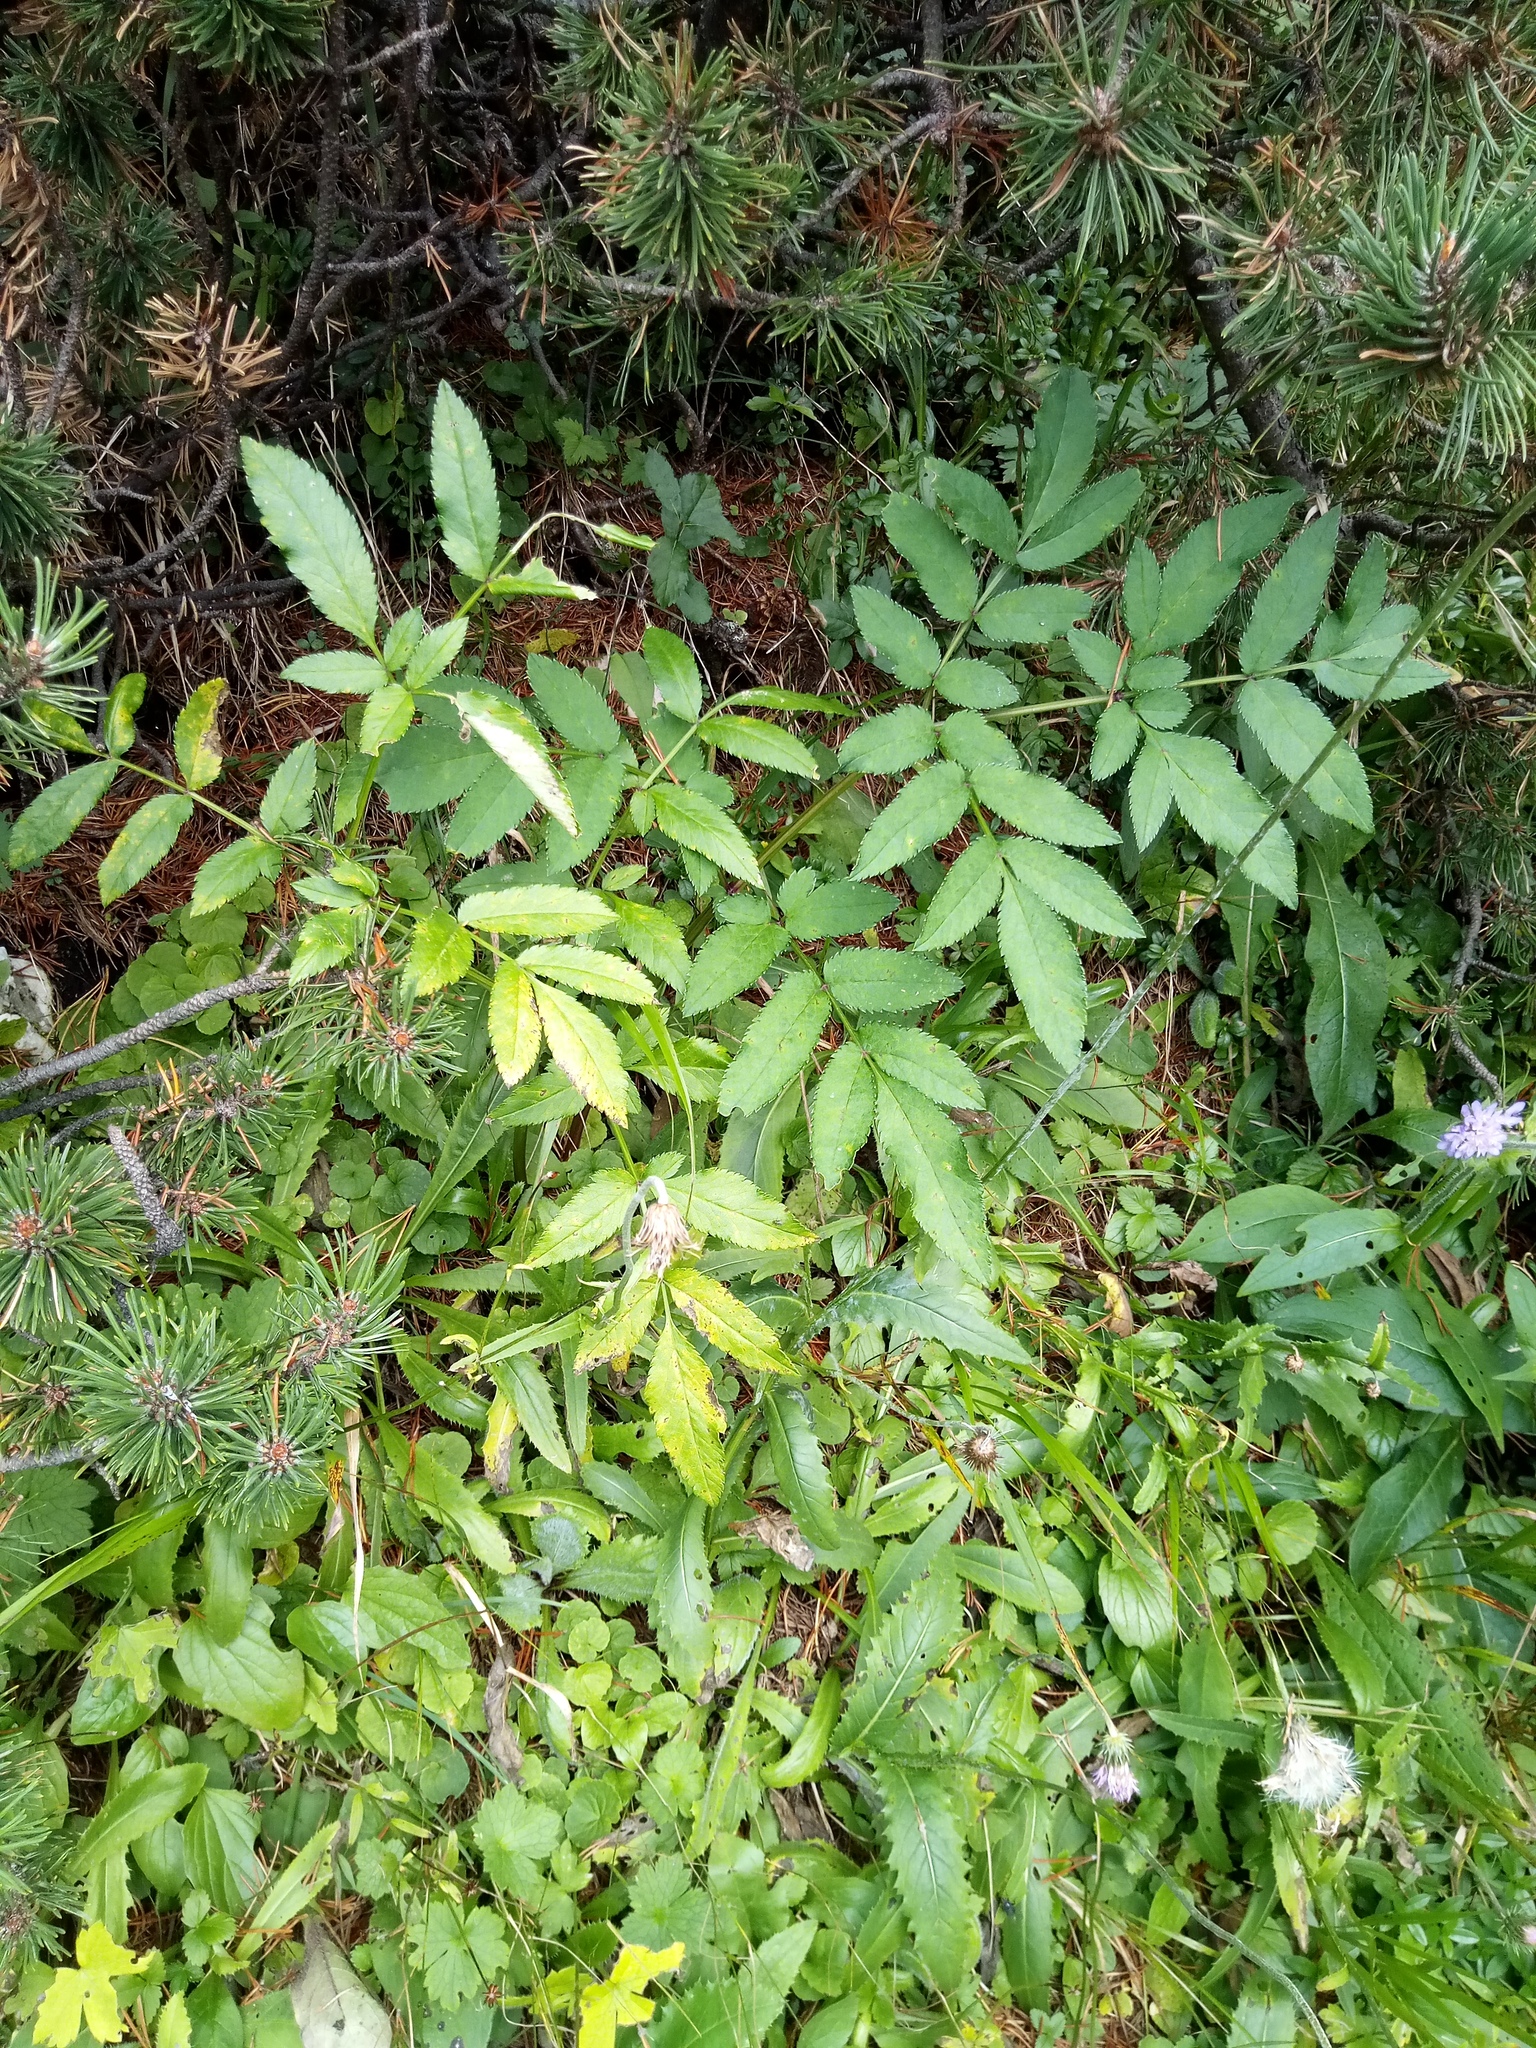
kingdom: Plantae
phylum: Tracheophyta
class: Magnoliopsida
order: Apiales
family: Apiaceae
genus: Angelica
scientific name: Angelica sylvestris
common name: Wild angelica
